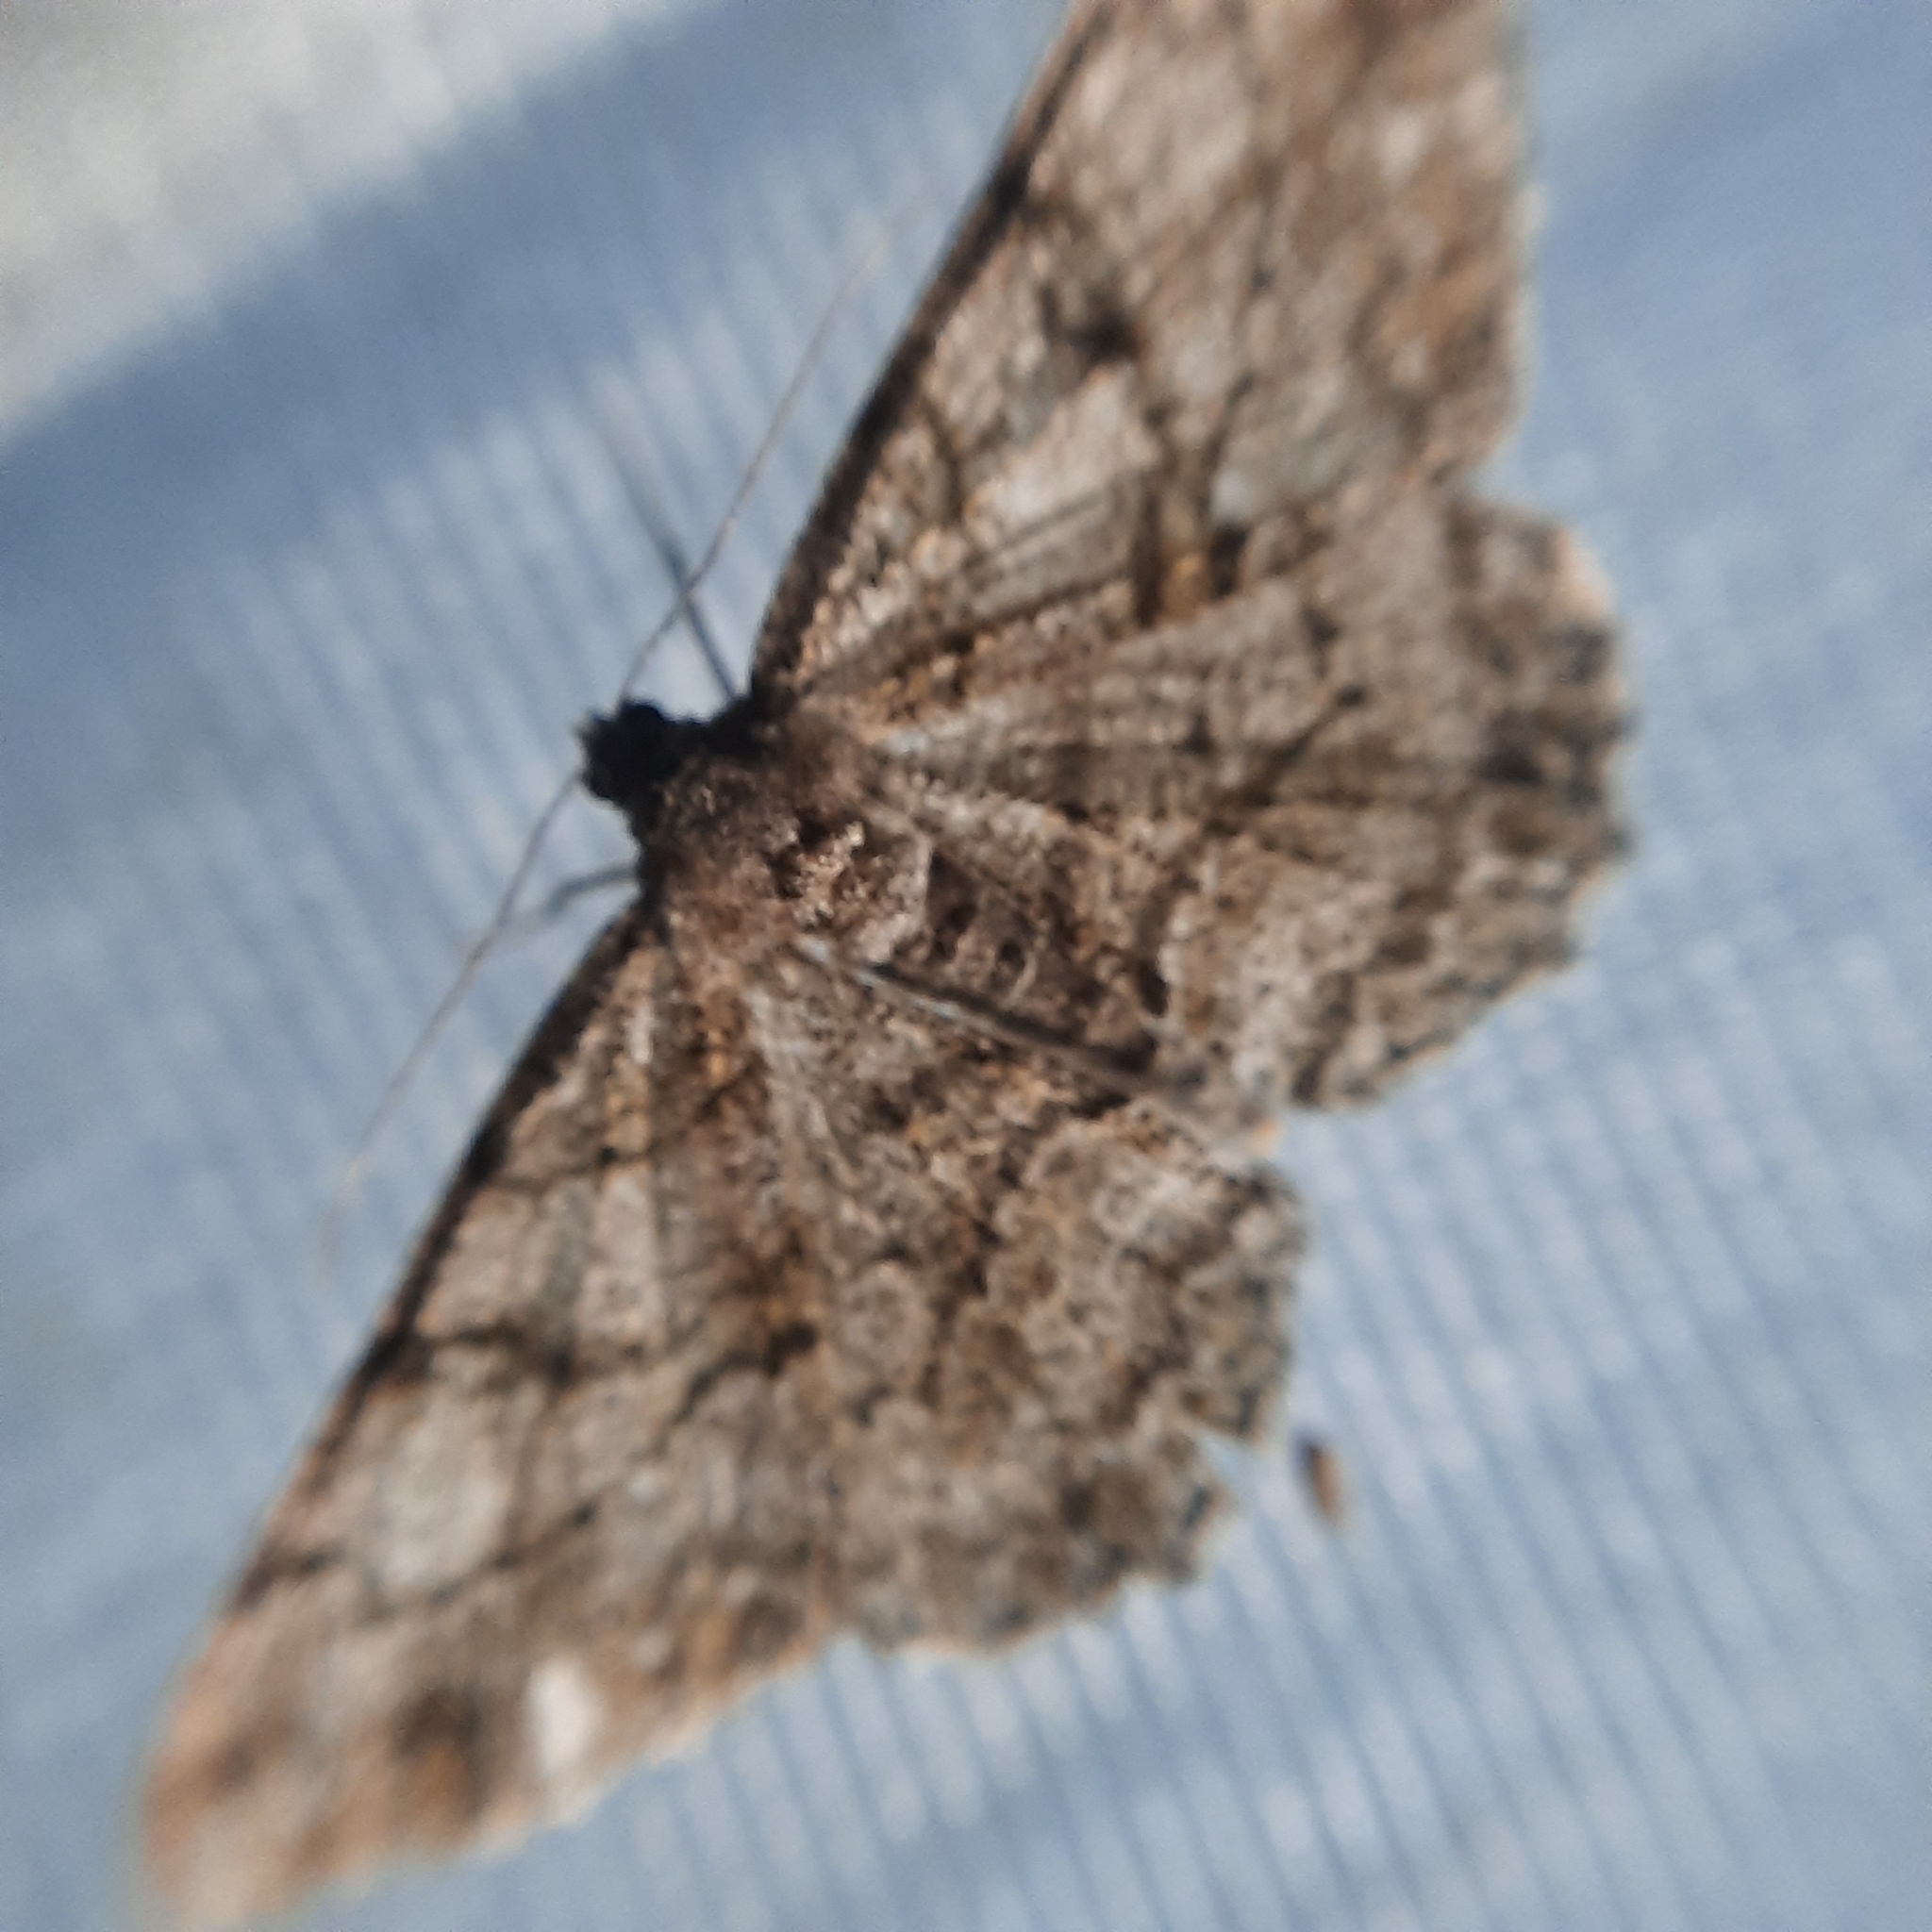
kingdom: Animalia
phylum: Arthropoda
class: Insecta
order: Lepidoptera
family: Geometridae
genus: Peribatodes
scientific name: Peribatodes rhomboidaria
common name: Willow beauty
